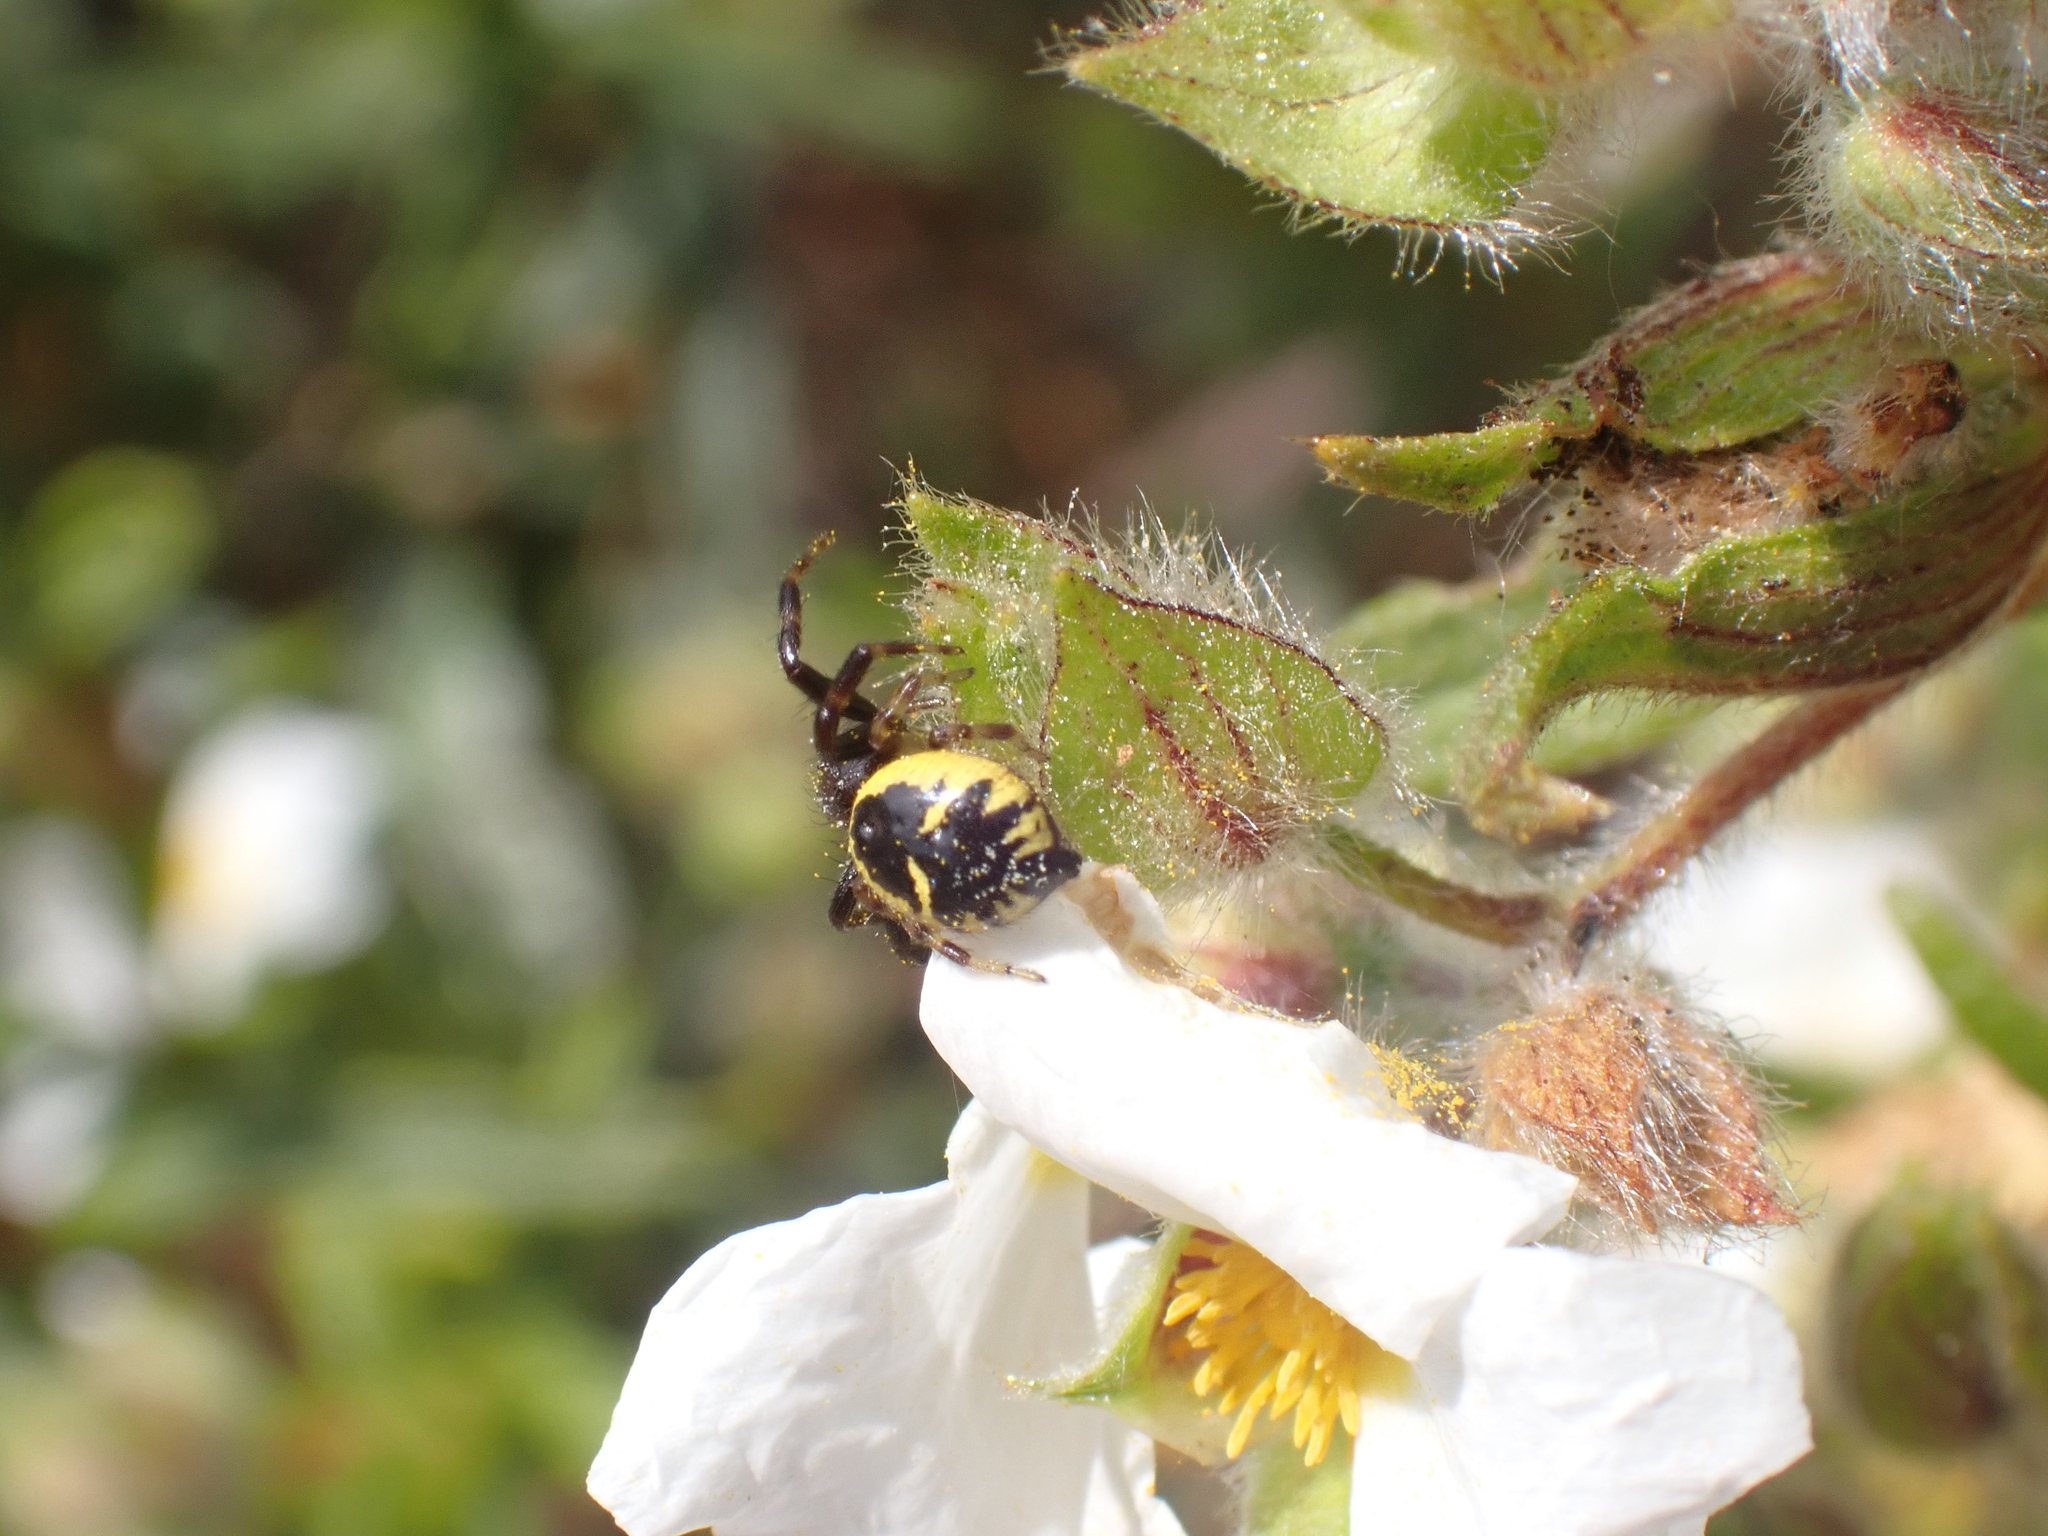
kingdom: Animalia
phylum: Arthropoda
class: Arachnida
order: Araneae
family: Thomisidae
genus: Synema
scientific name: Synema globosum
